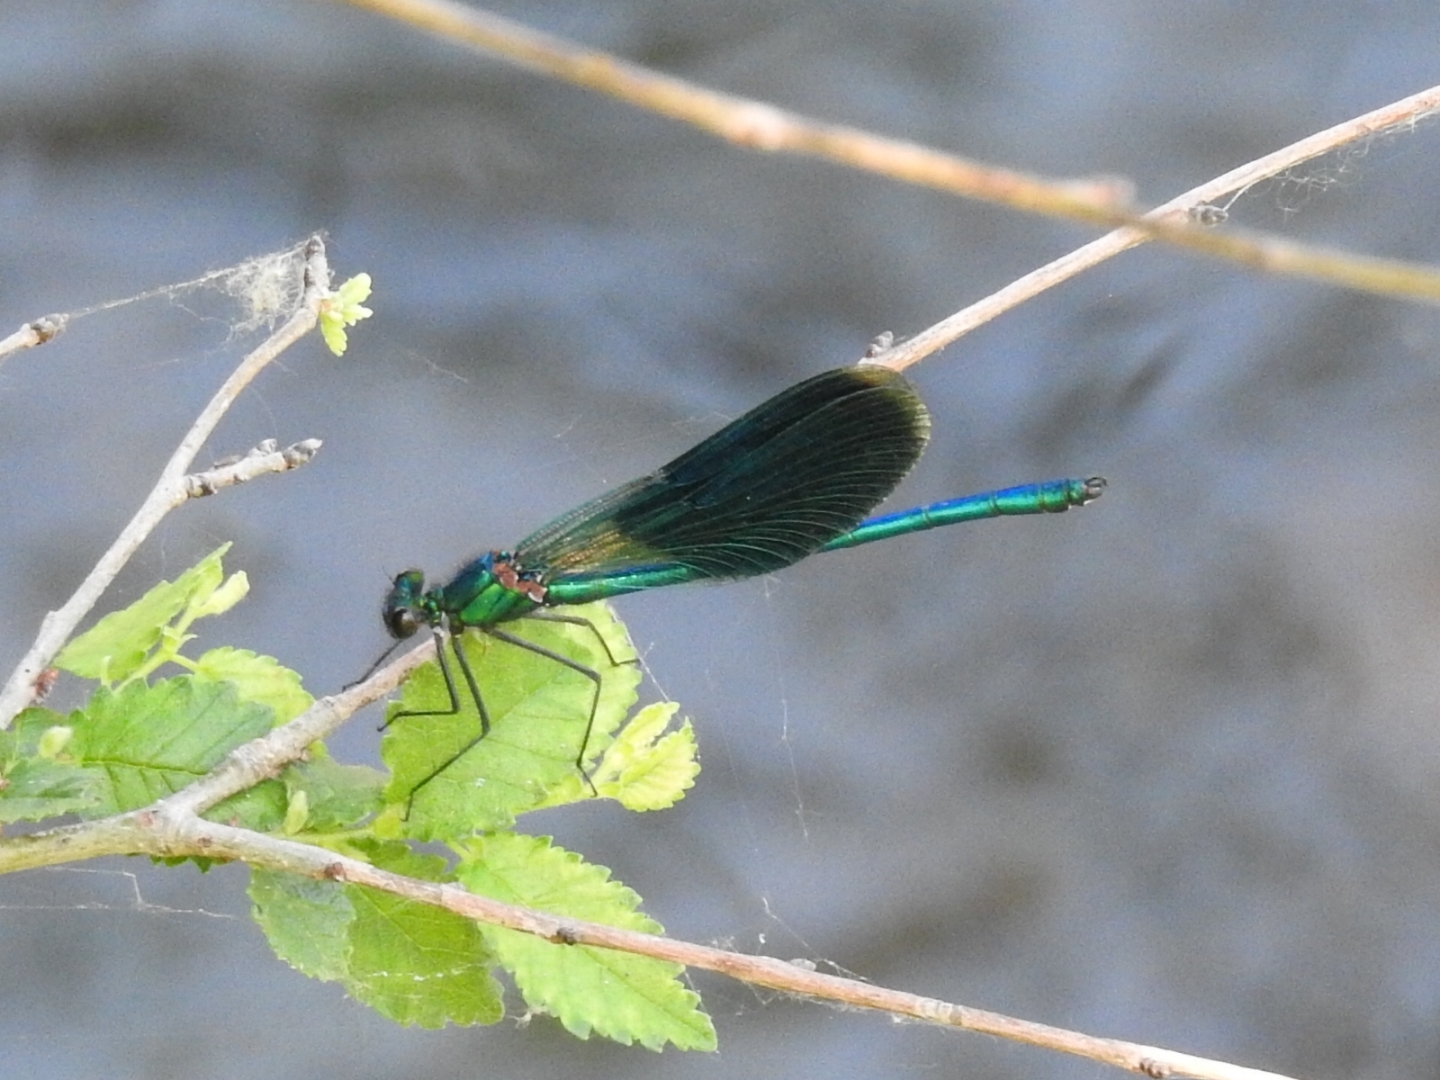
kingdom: Animalia
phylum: Arthropoda
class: Insecta
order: Odonata
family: Calopterygidae
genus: Calopteryx
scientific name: Calopteryx splendens
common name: Banded demoiselle
